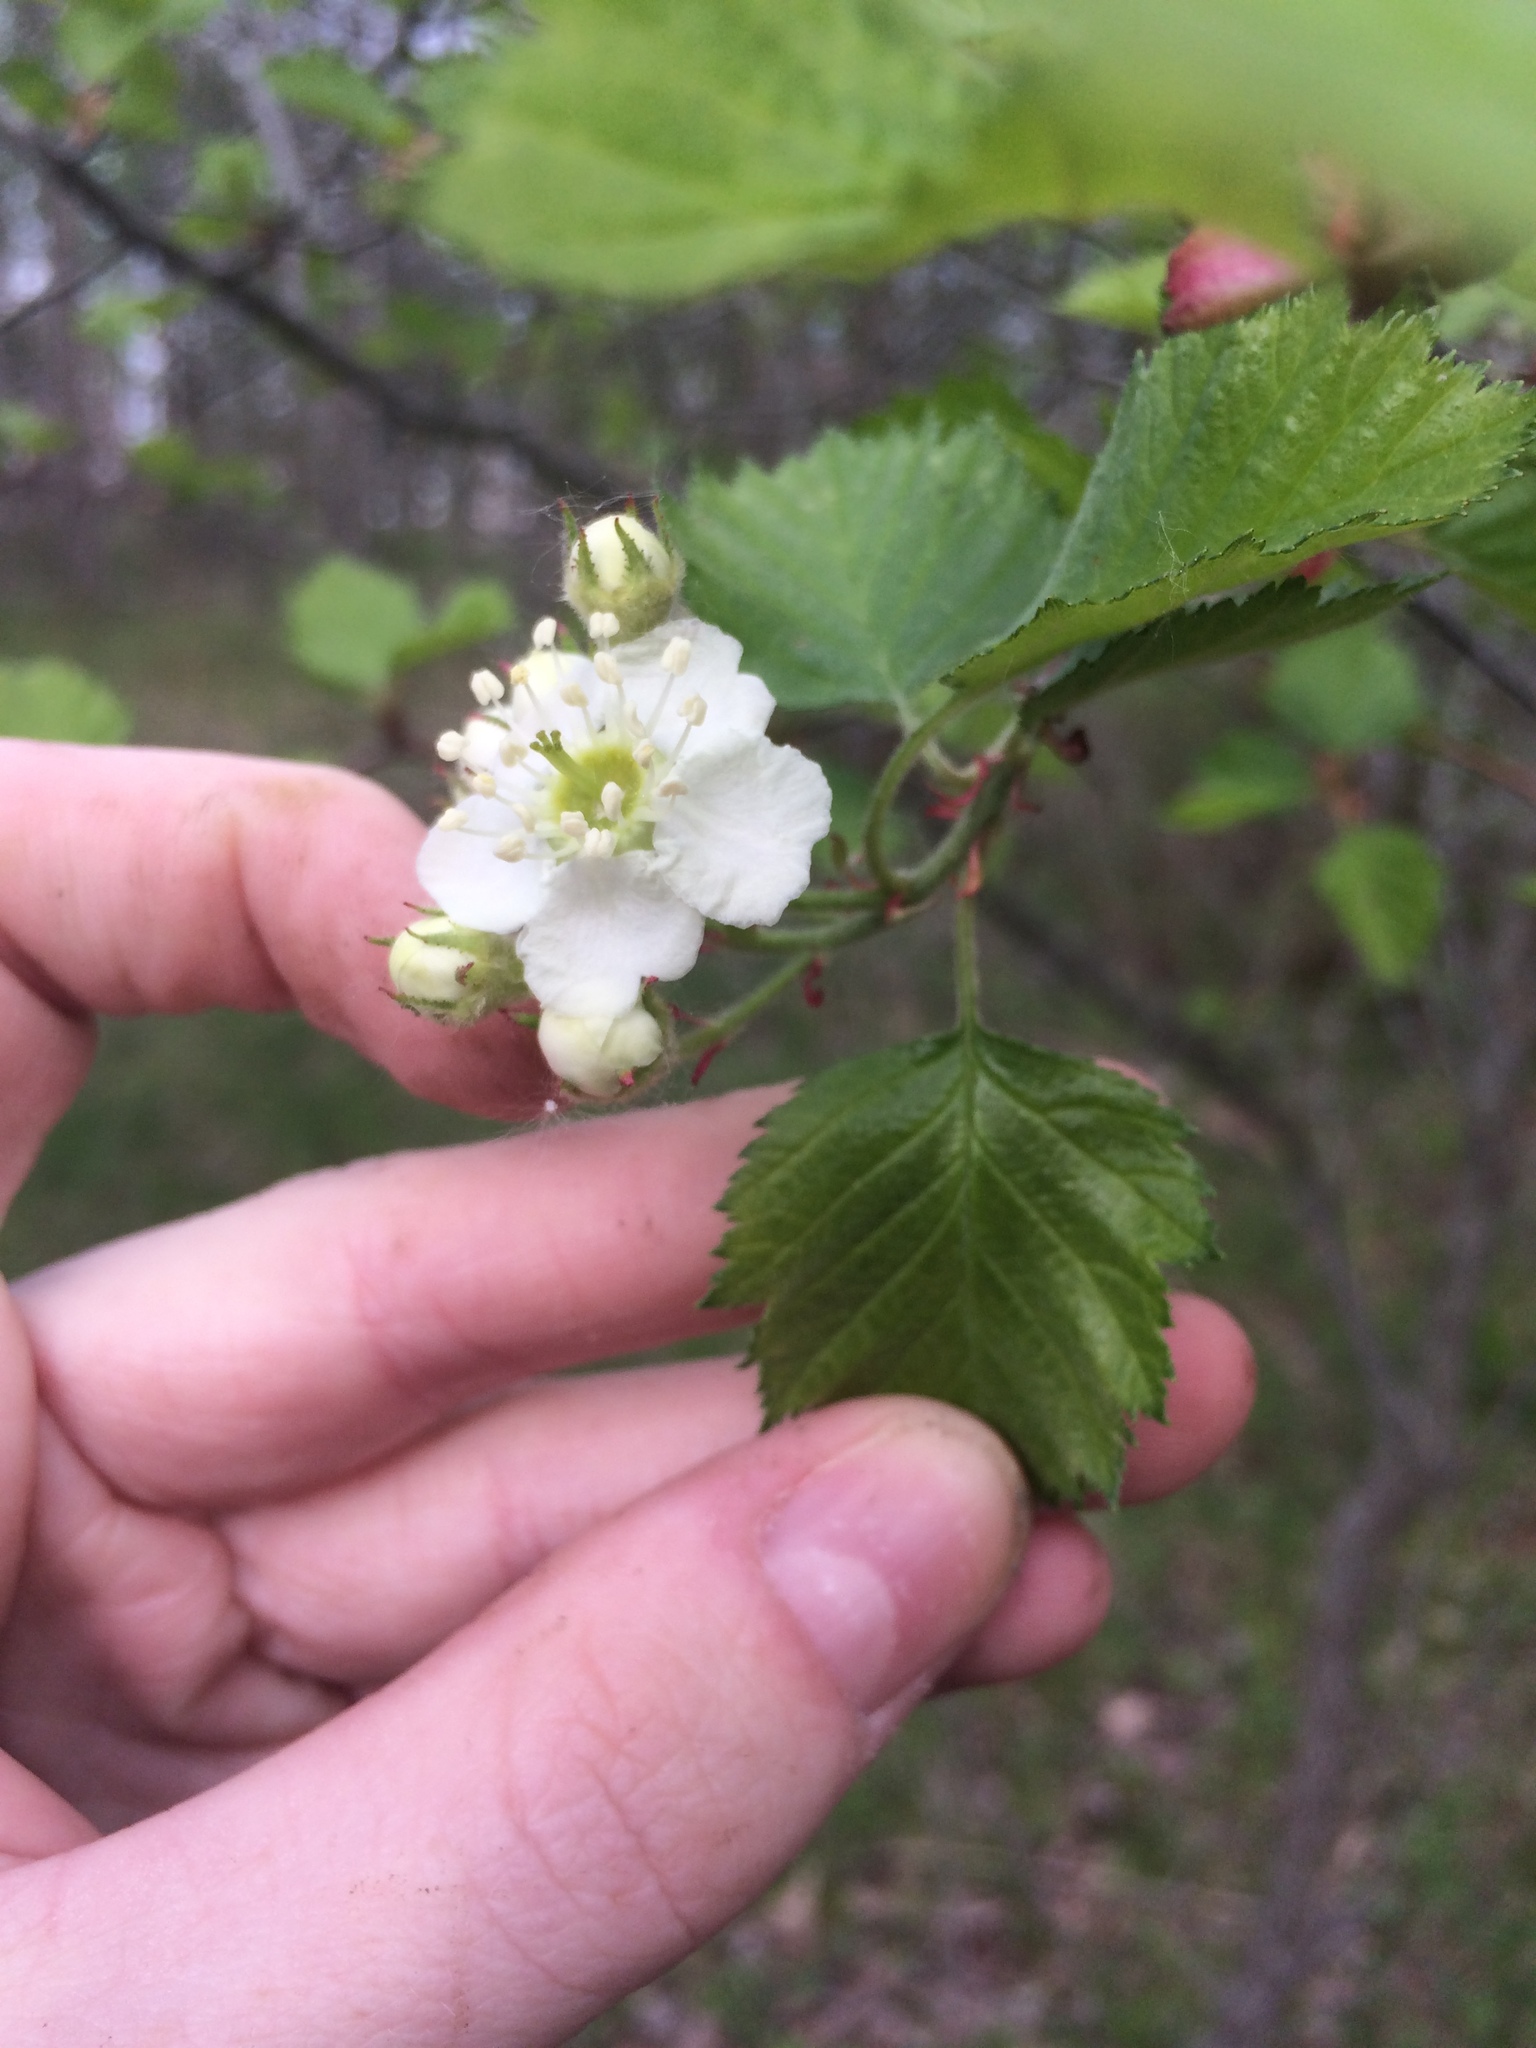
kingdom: Plantae
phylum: Tracheophyta
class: Magnoliopsida
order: Rosales
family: Rosaceae
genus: Crataegus
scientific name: Crataegus submollis
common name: Hairy cockspurthorn
